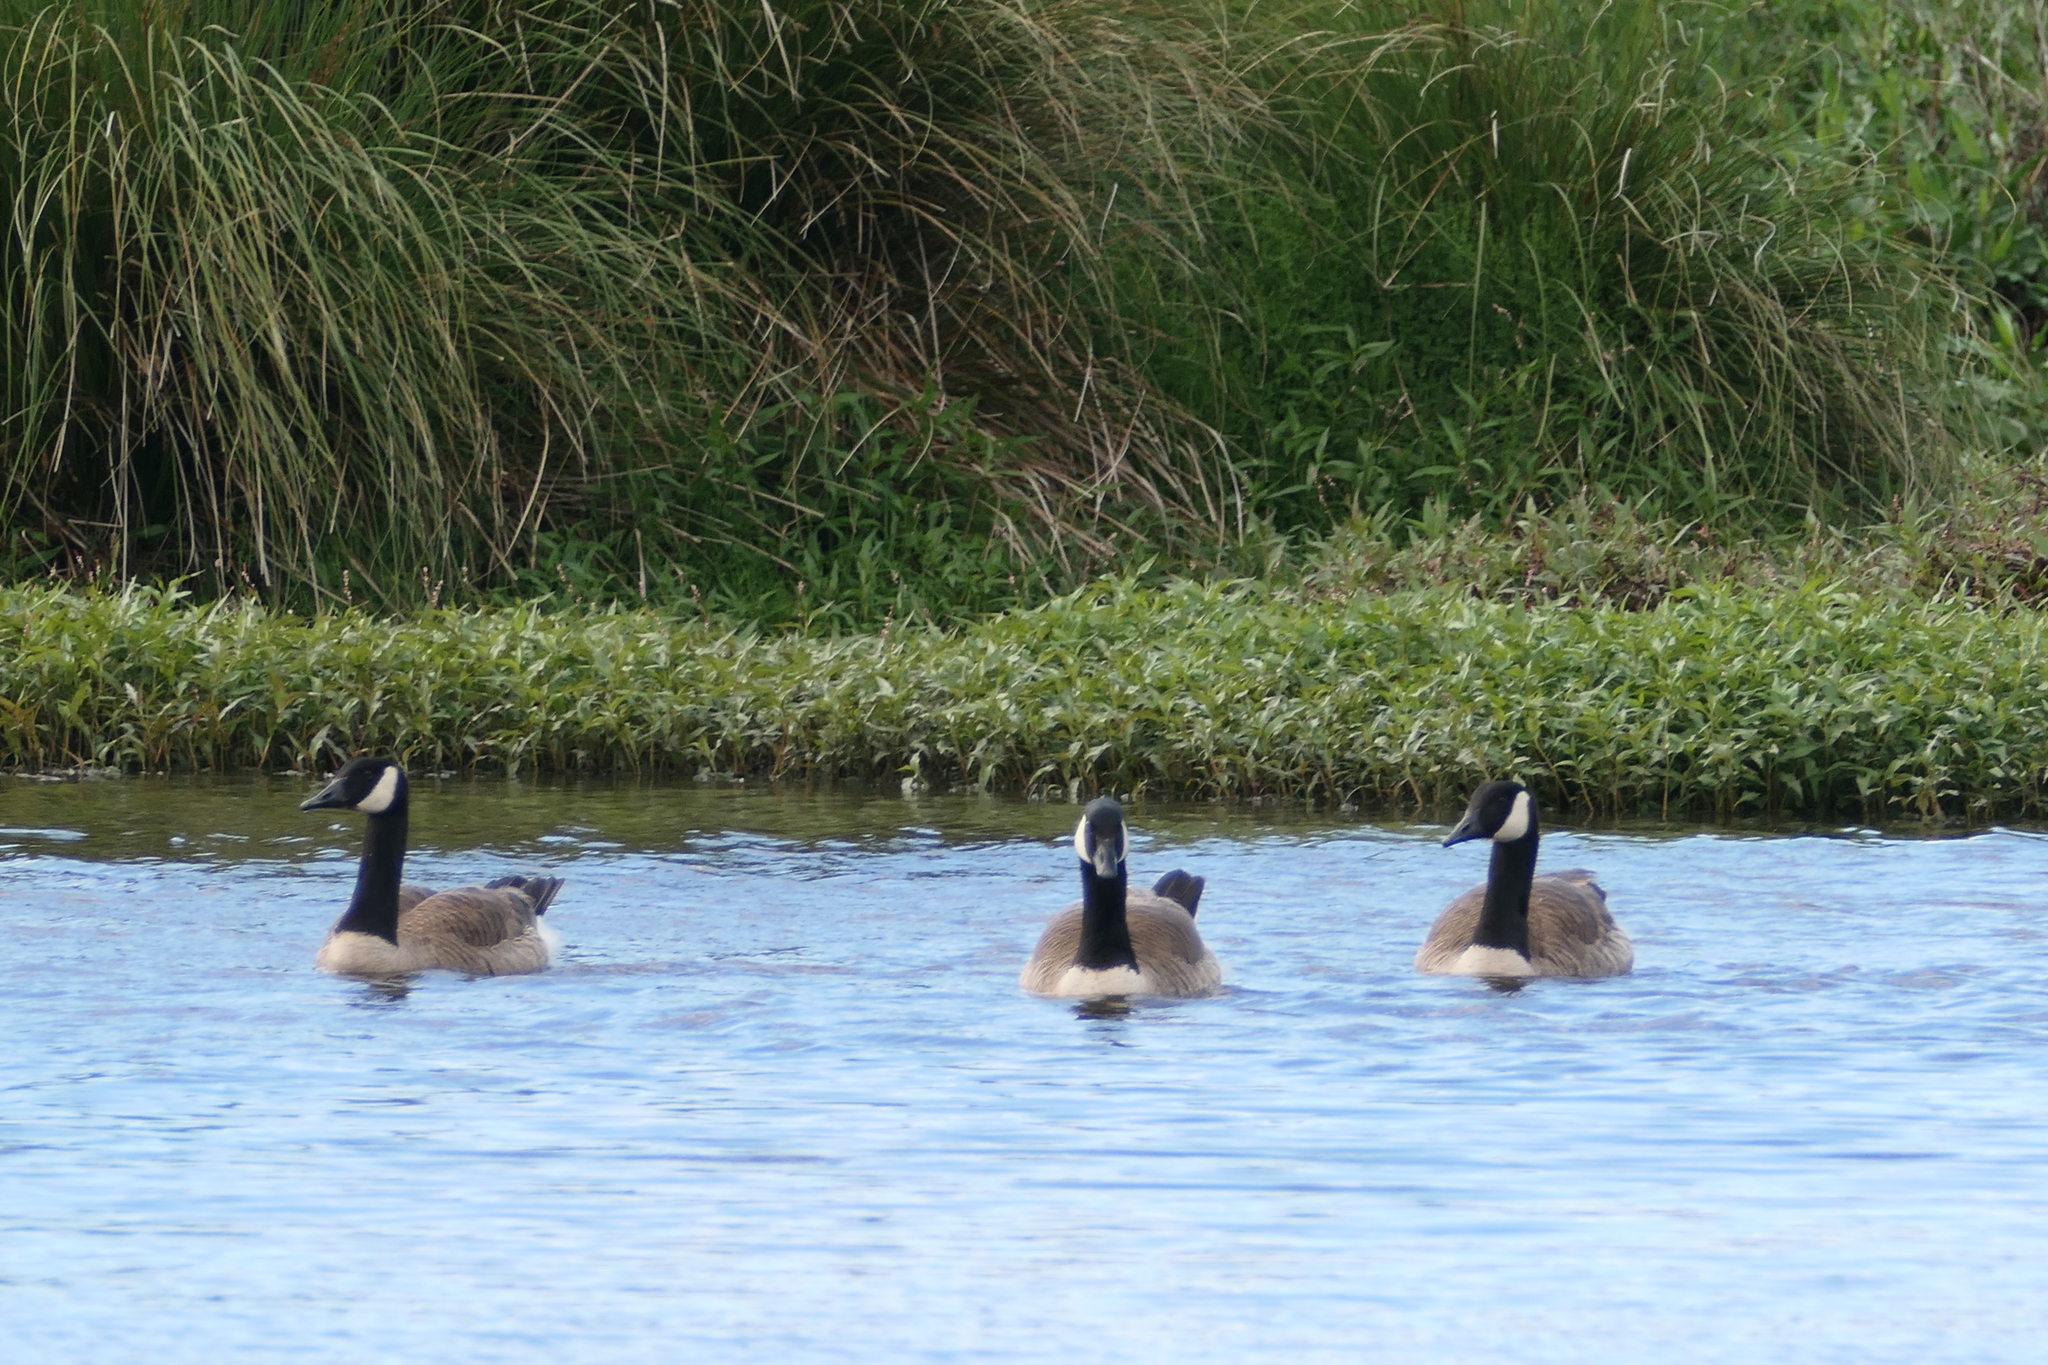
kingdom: Animalia
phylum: Chordata
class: Aves
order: Anseriformes
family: Anatidae
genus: Branta
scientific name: Branta canadensis
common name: Canada goose
